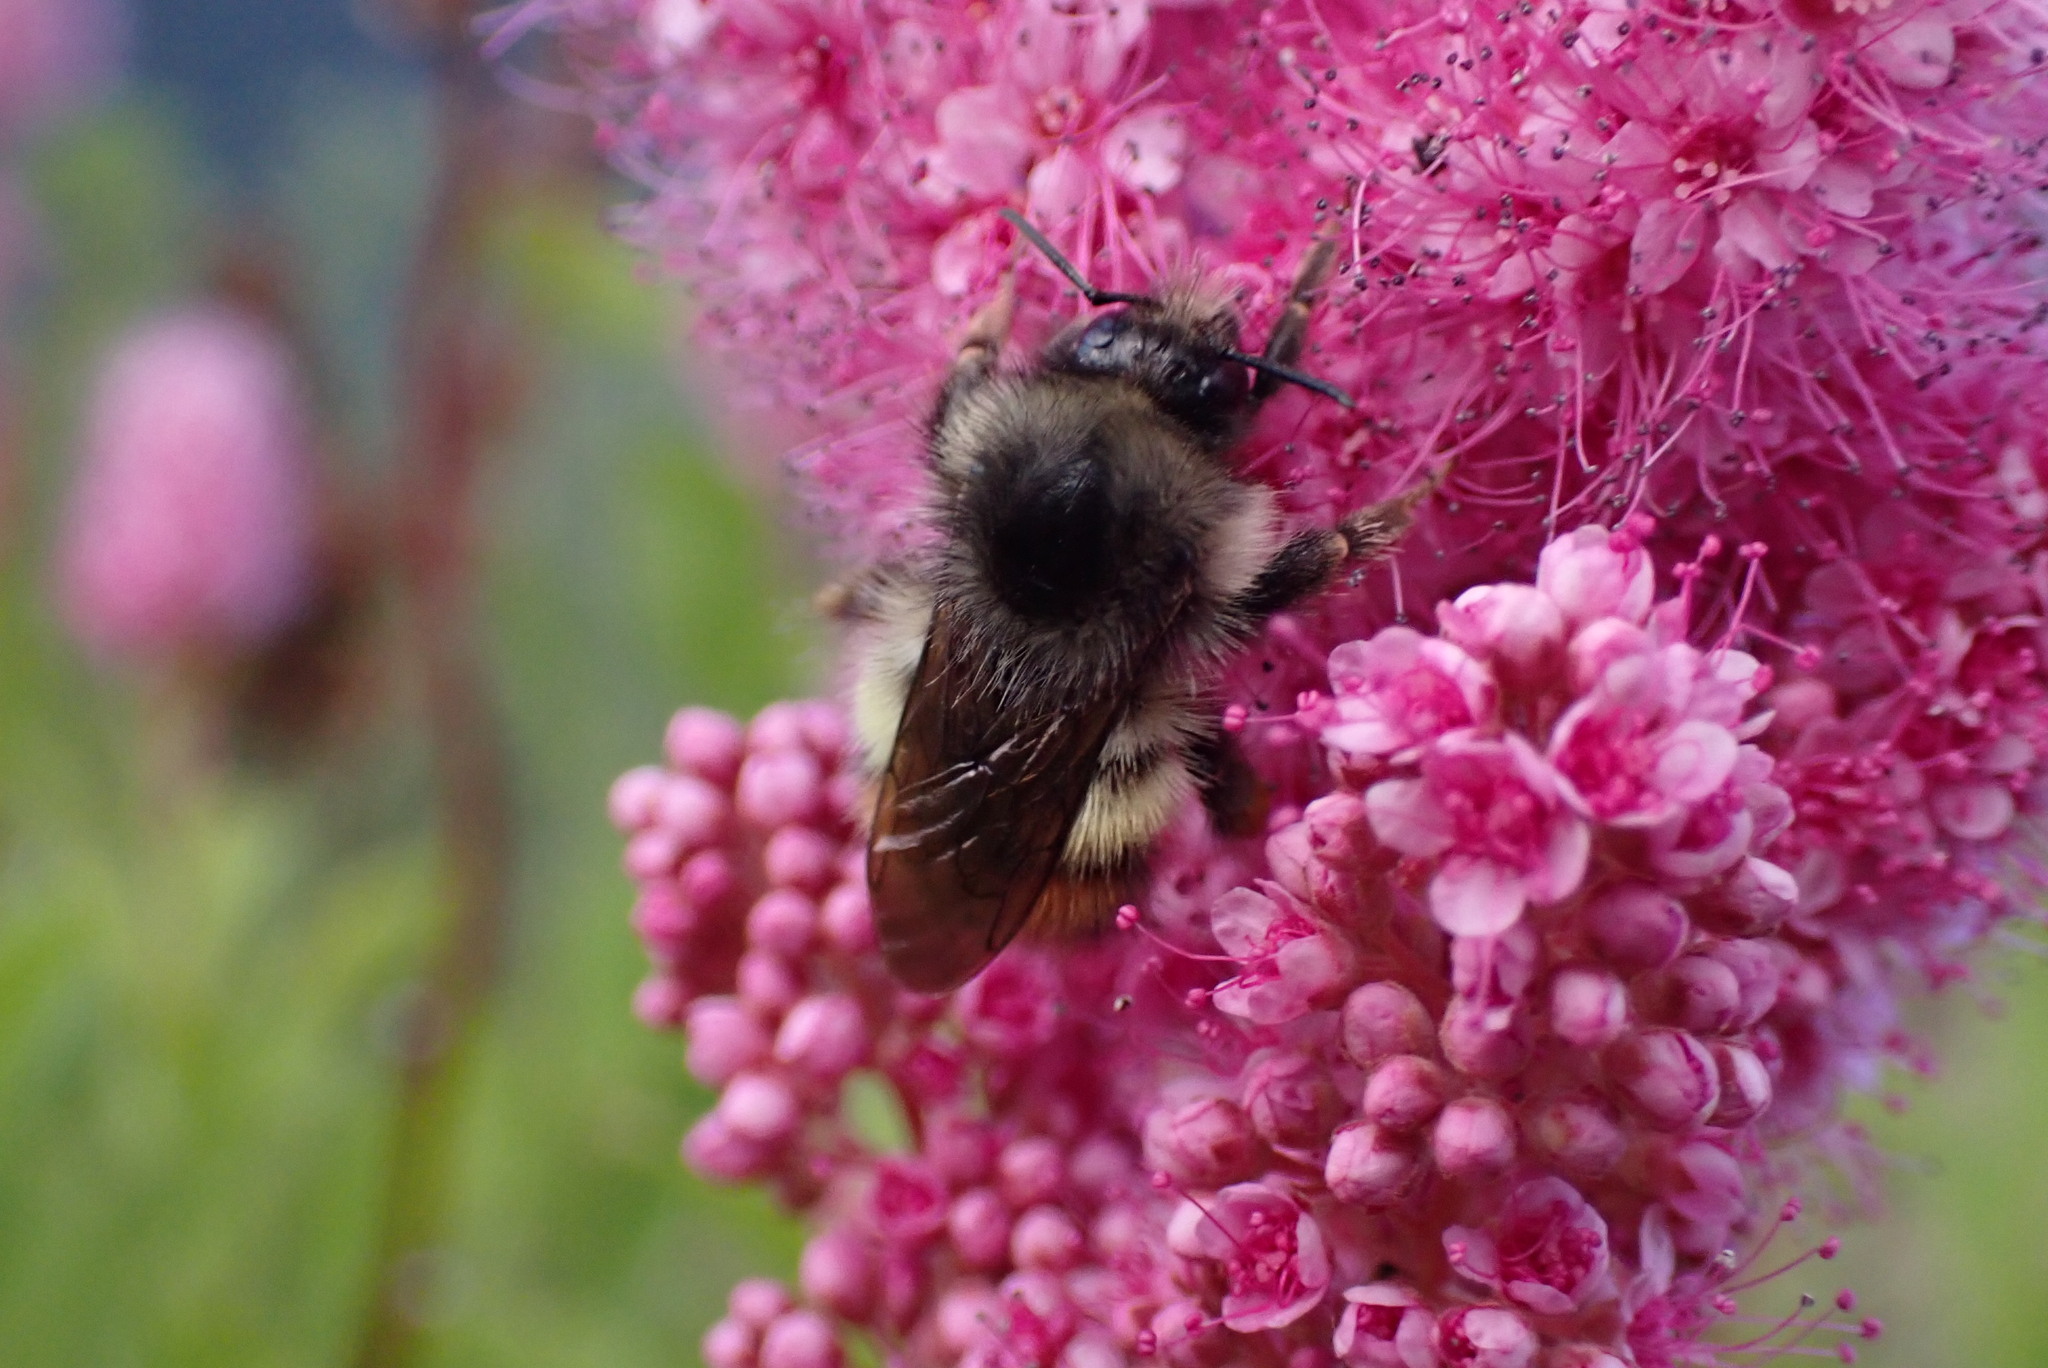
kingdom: Animalia
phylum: Arthropoda
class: Insecta
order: Hymenoptera
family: Apidae
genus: Bombus
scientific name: Bombus flavifrons
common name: Yellow head bumble bee
